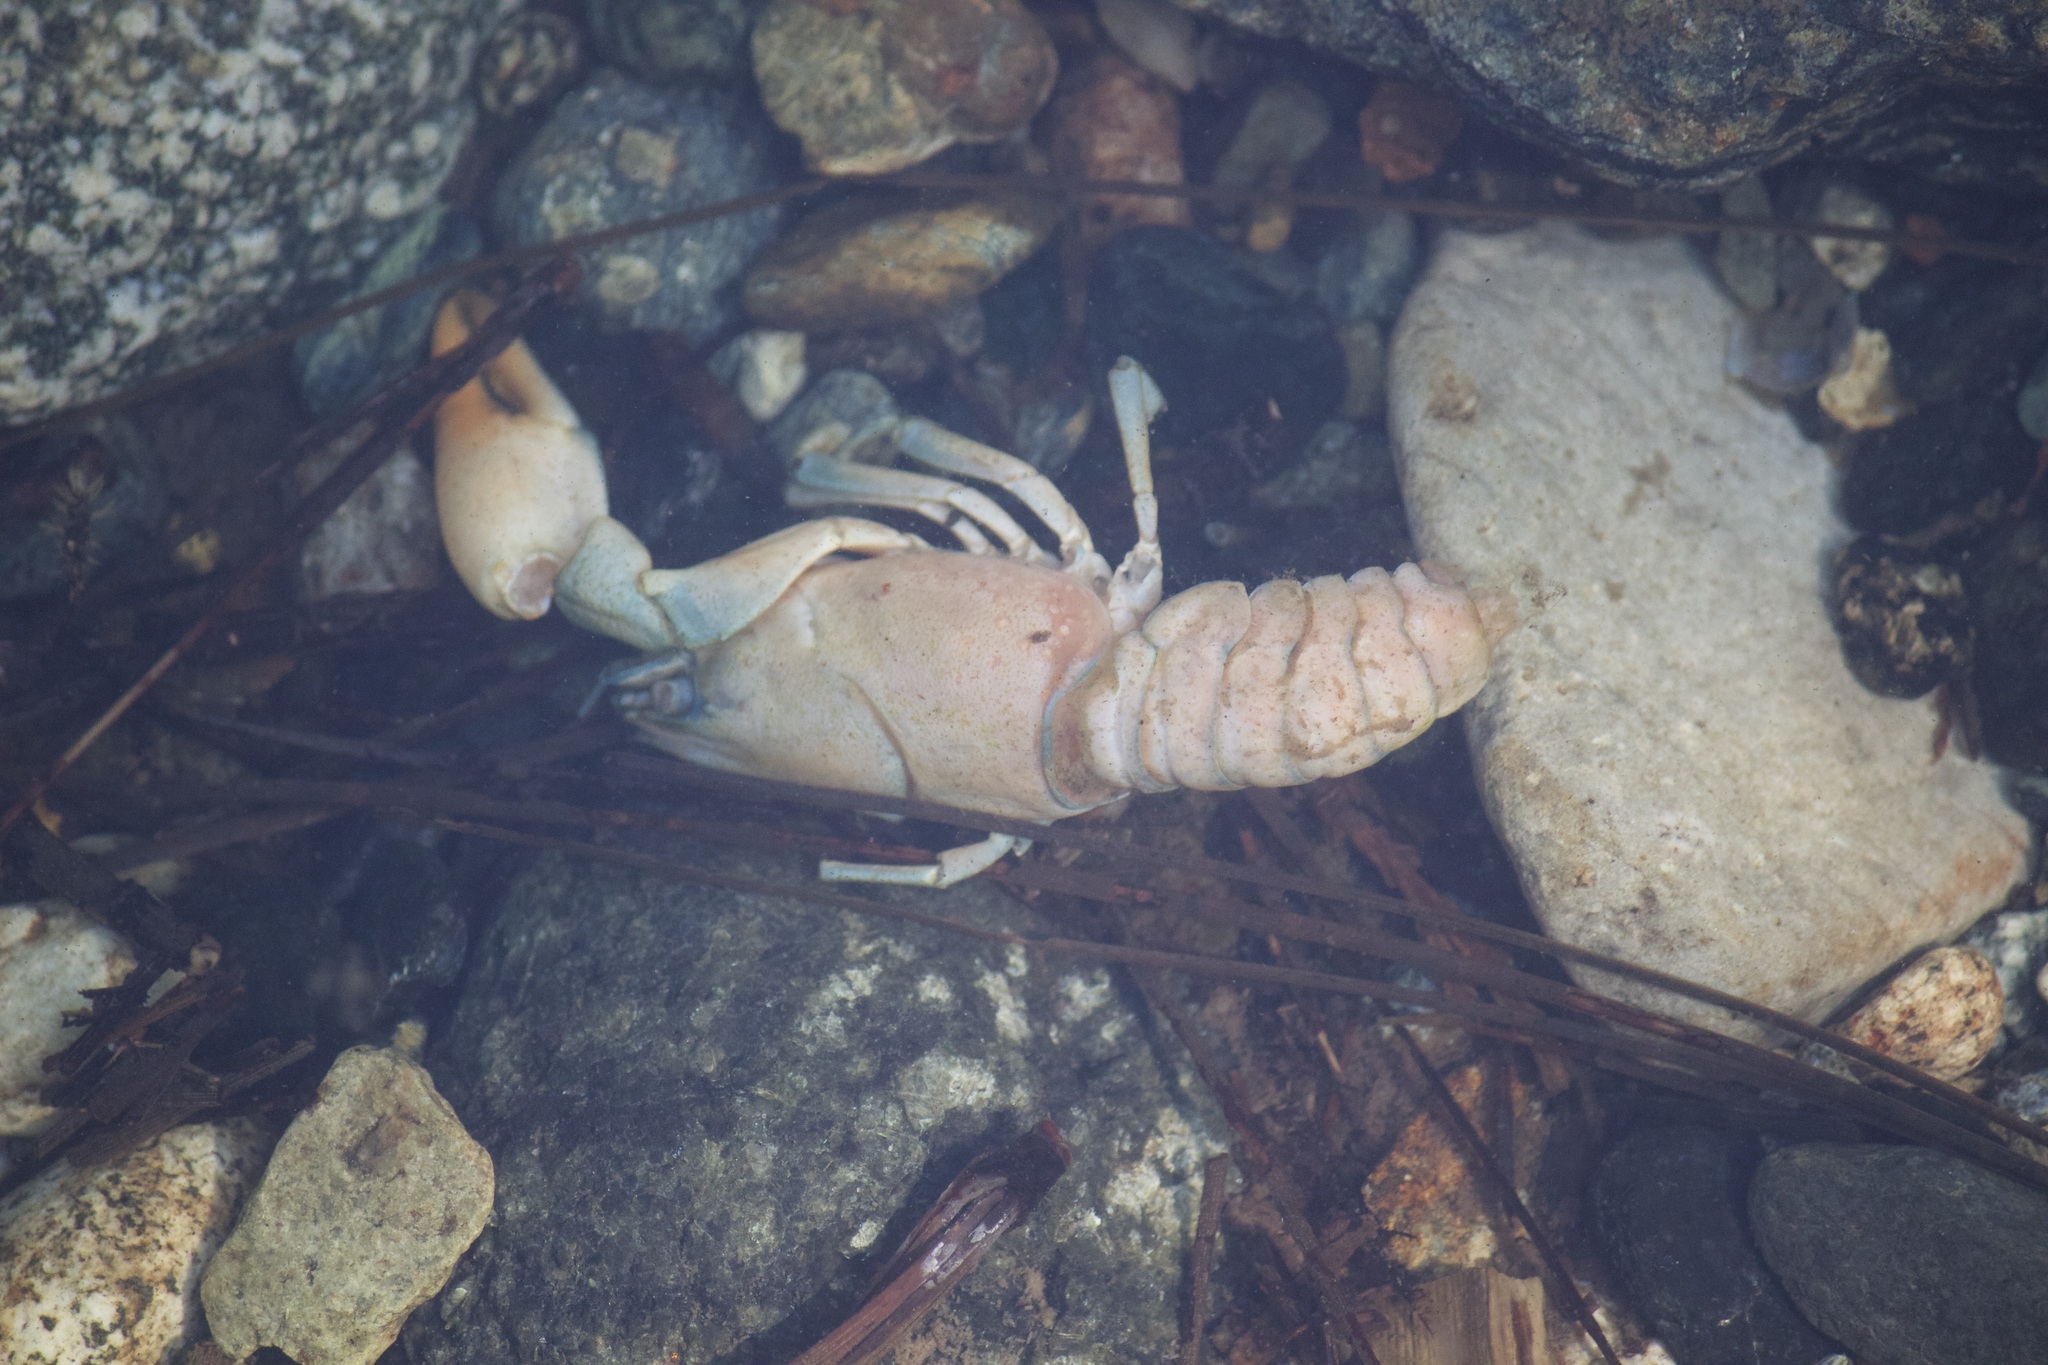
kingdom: Animalia
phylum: Arthropoda
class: Malacostraca
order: Decapoda
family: Astacidae
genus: Pacifastacus
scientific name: Pacifastacus leniusculus
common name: Signal crayfish
